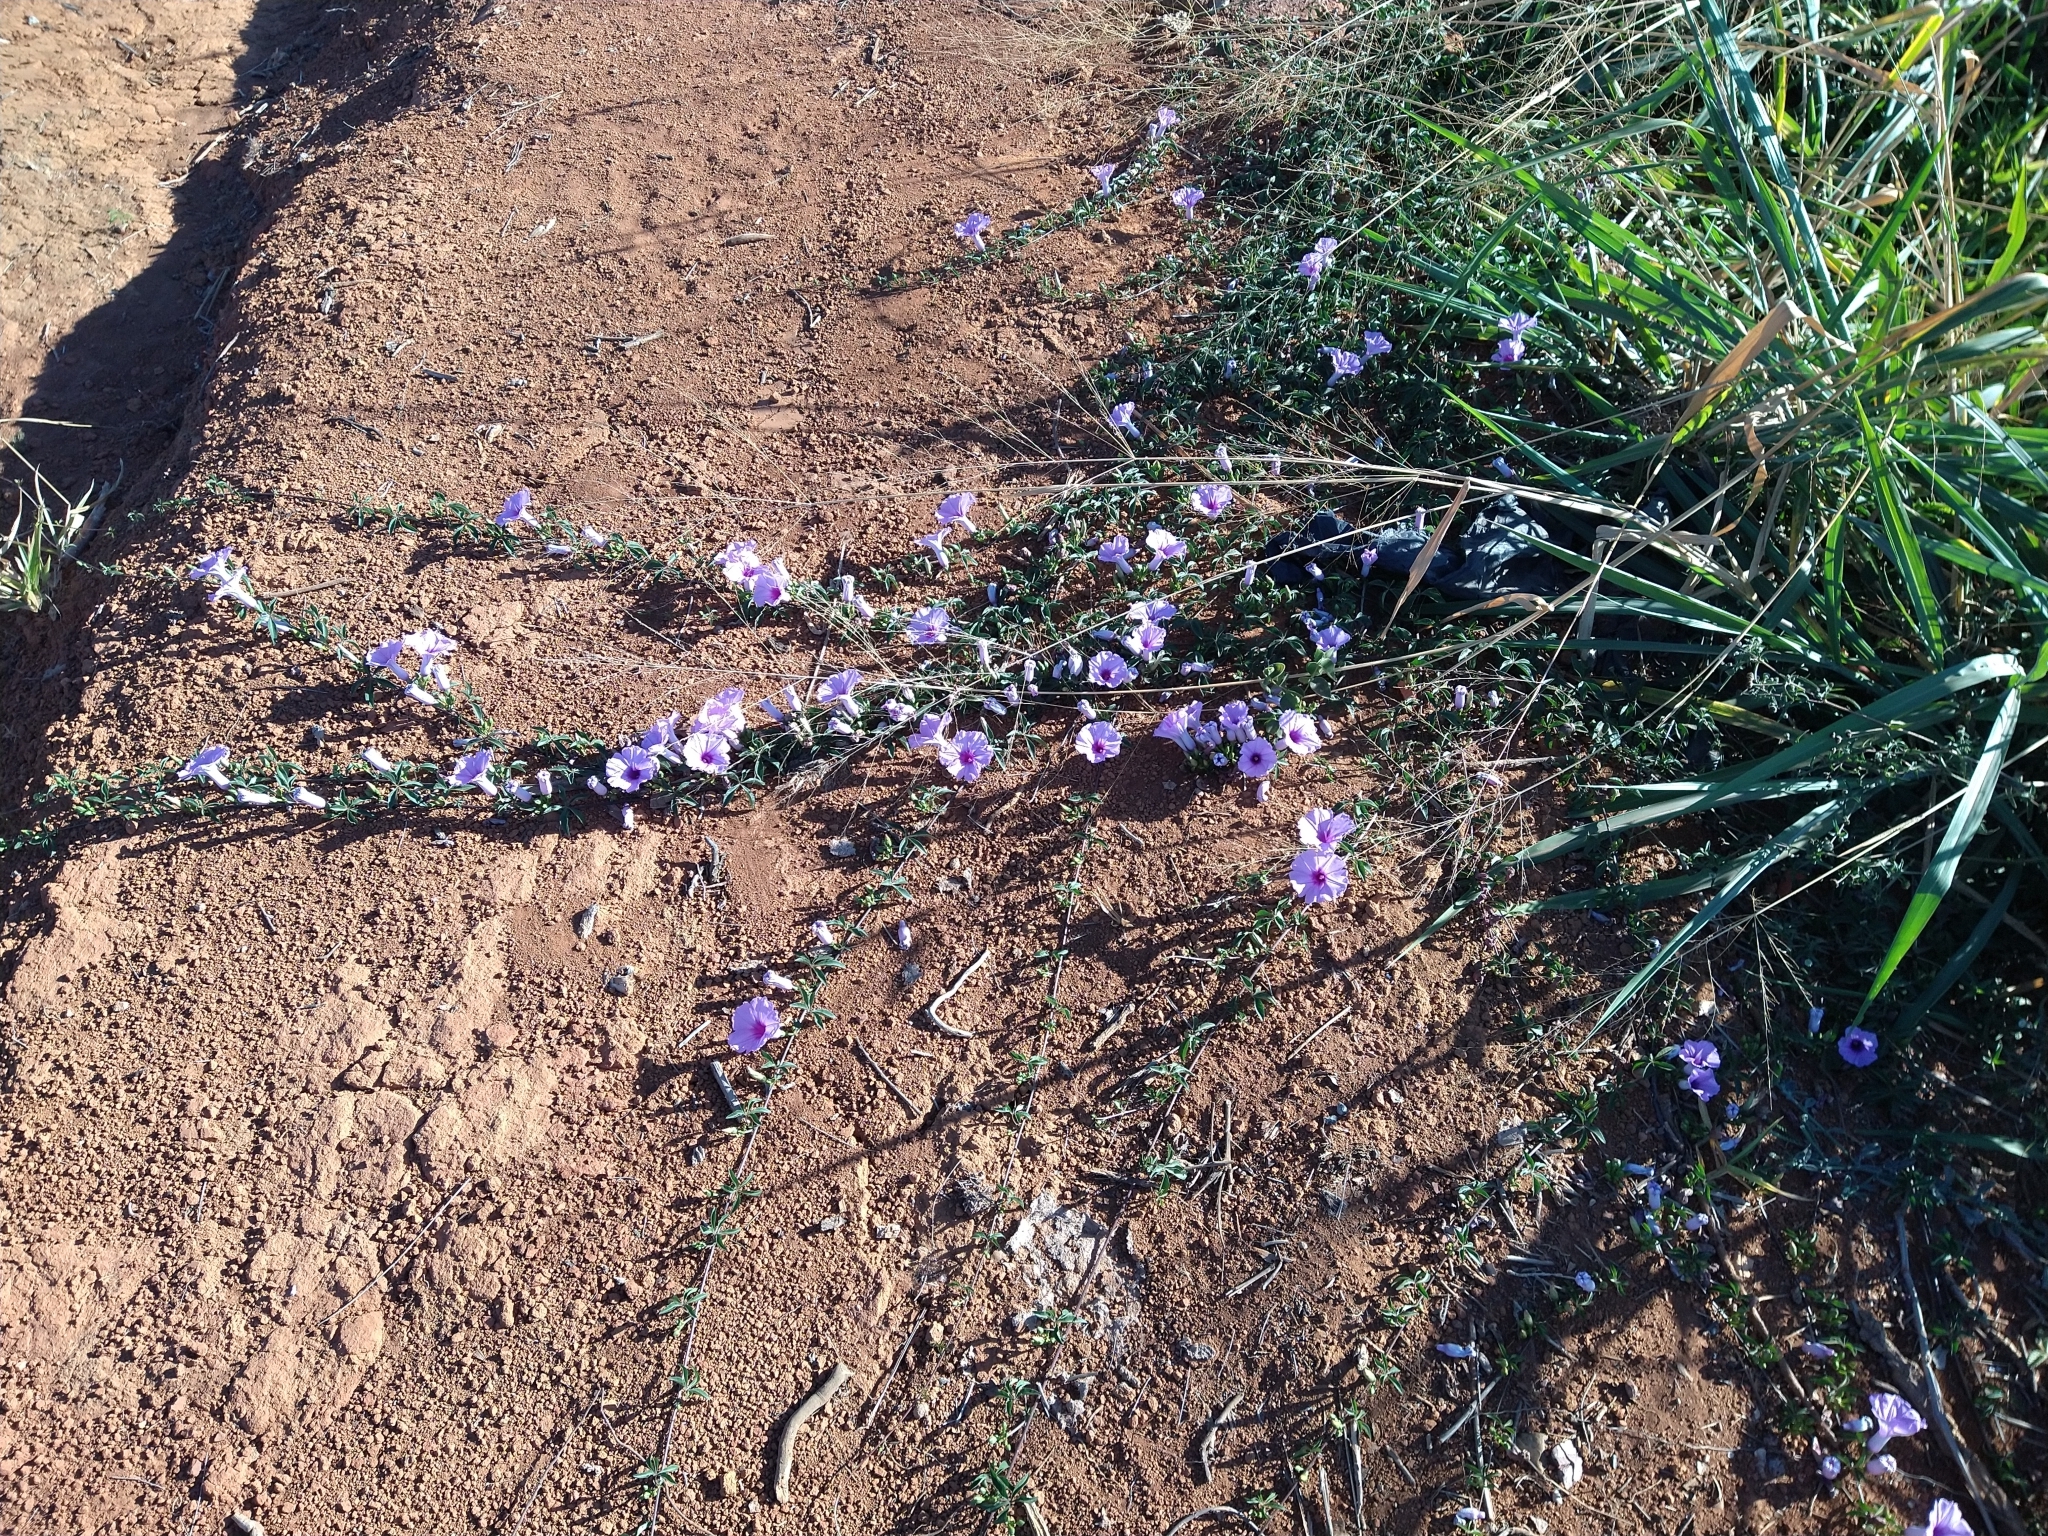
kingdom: Plantae
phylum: Tracheophyta
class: Magnoliopsida
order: Solanales
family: Convolvulaceae
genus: Ipomoea
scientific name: Ipomoea cairica
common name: Mile a minute vine
